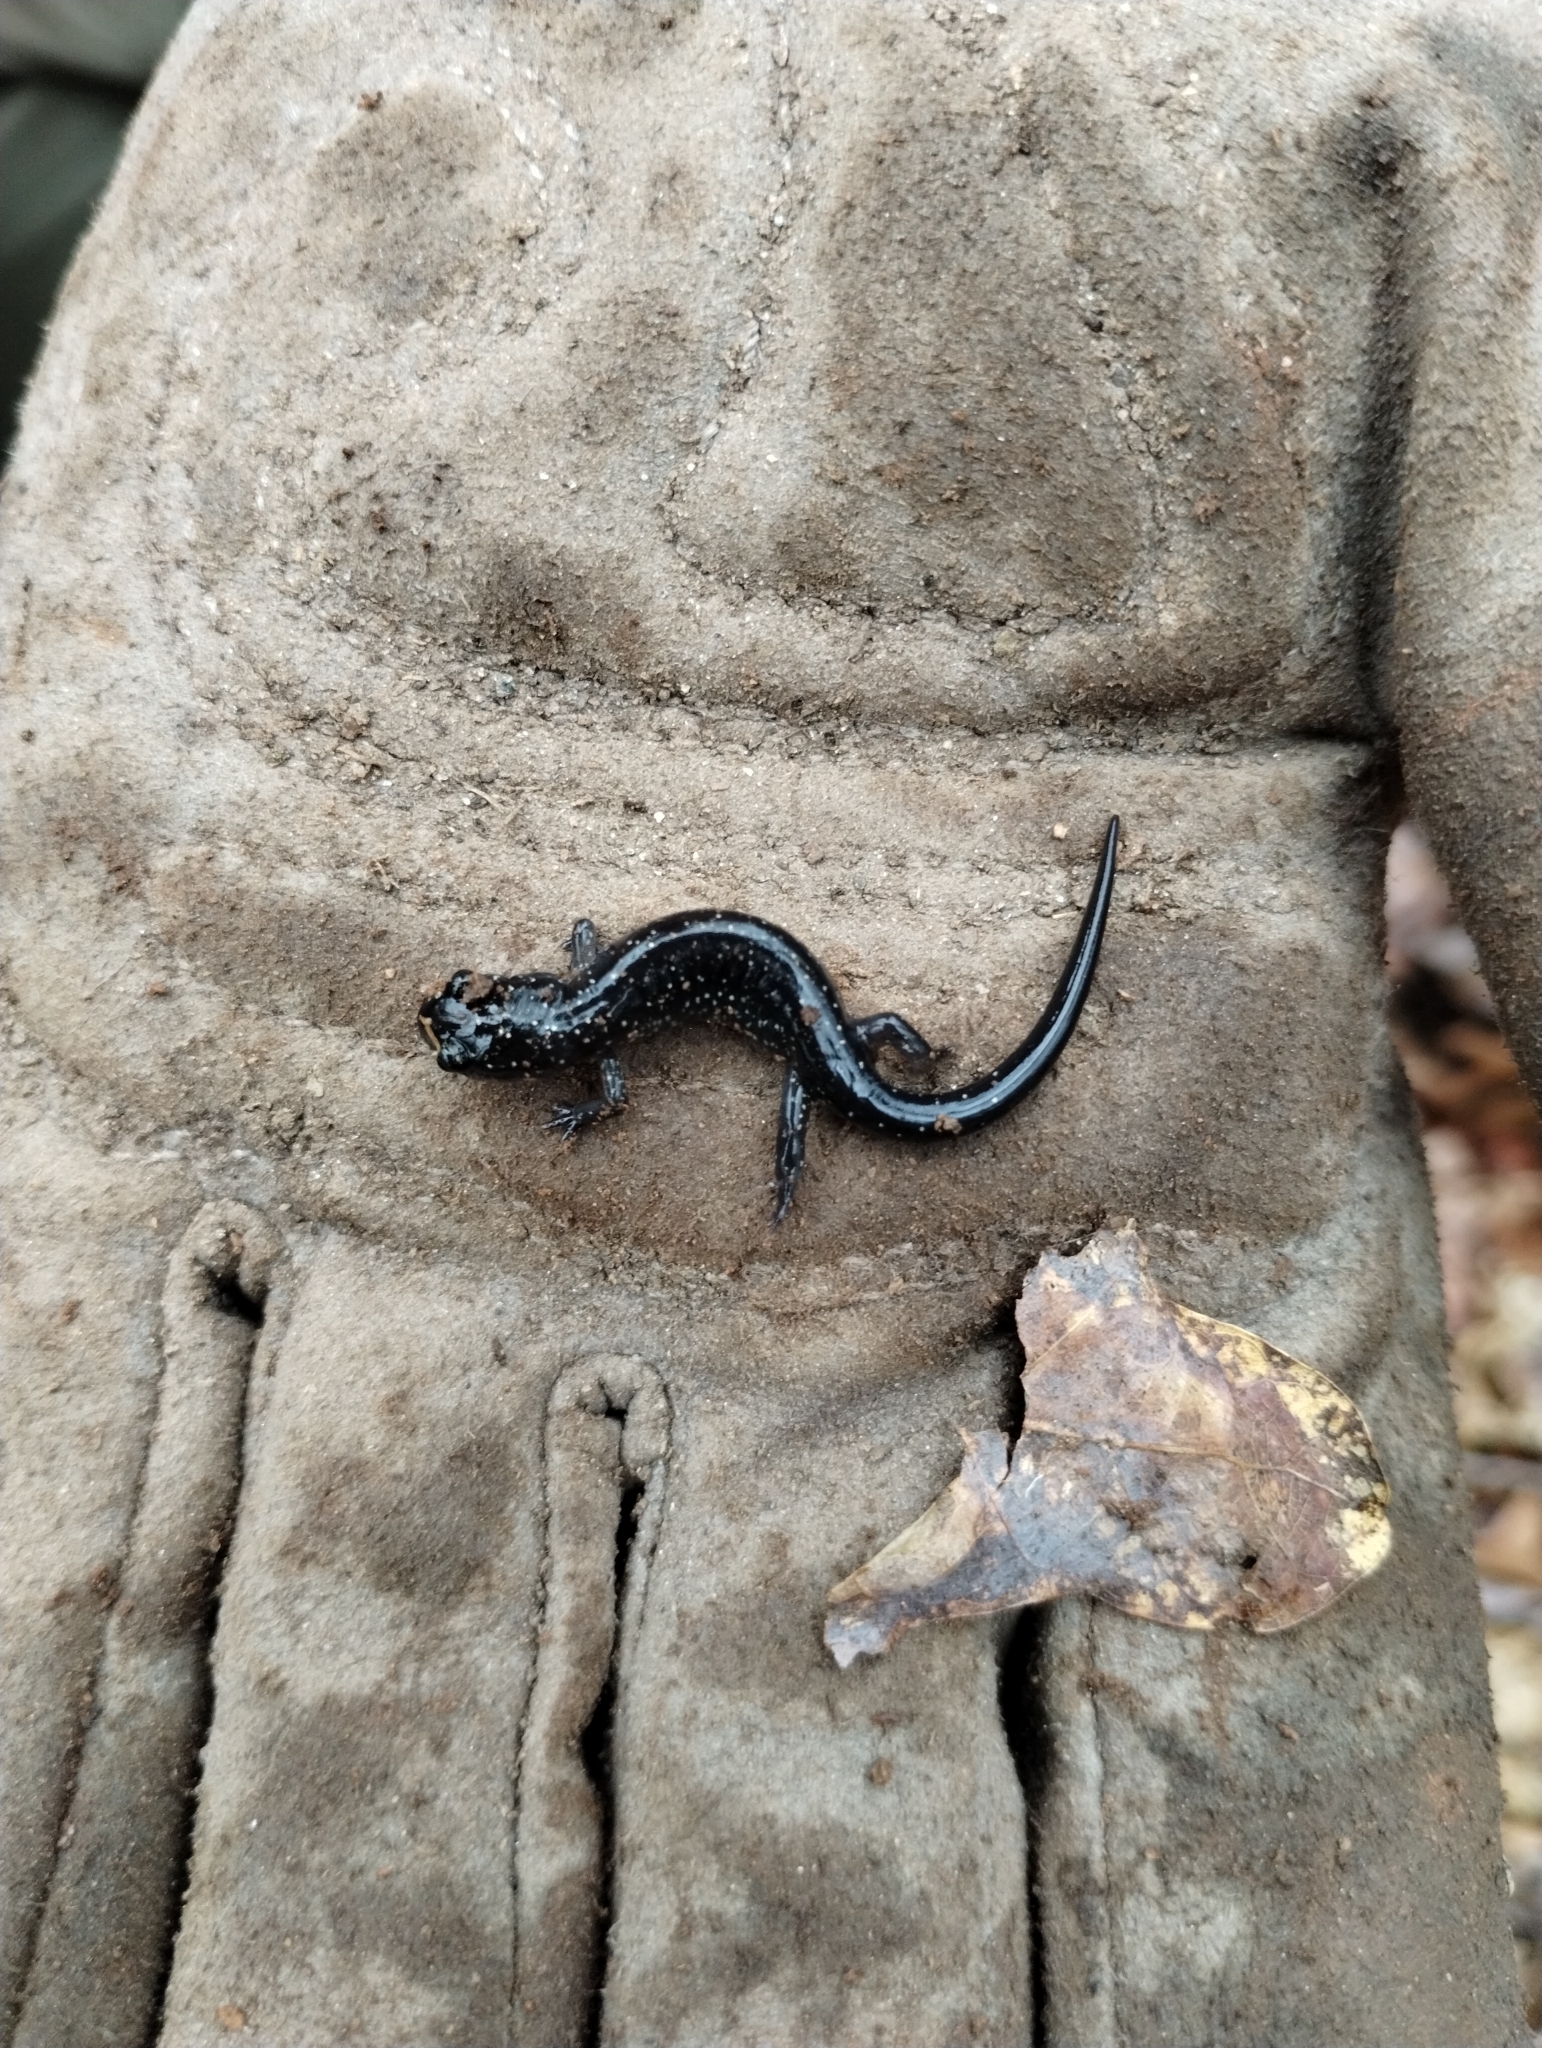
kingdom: Animalia
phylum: Chordata
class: Amphibia
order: Caudata
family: Plethodontidae
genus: Plethodon
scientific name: Plethodon glutinosus
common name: Northern slimy salamander
